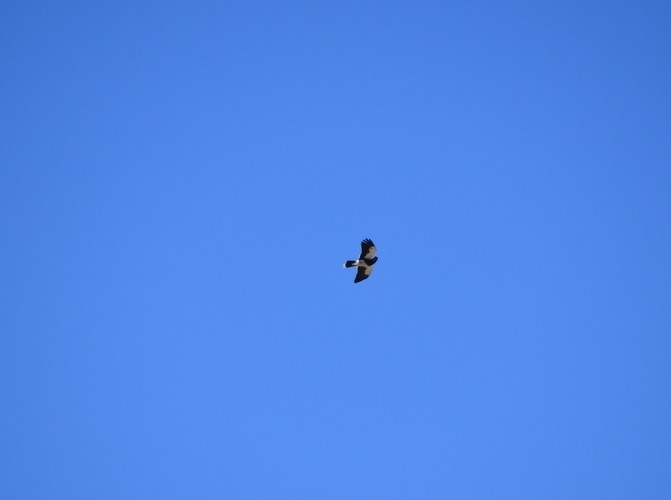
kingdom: Animalia
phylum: Chordata
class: Aves
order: Falconiformes
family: Falconidae
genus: Daptrius
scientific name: Daptrius
